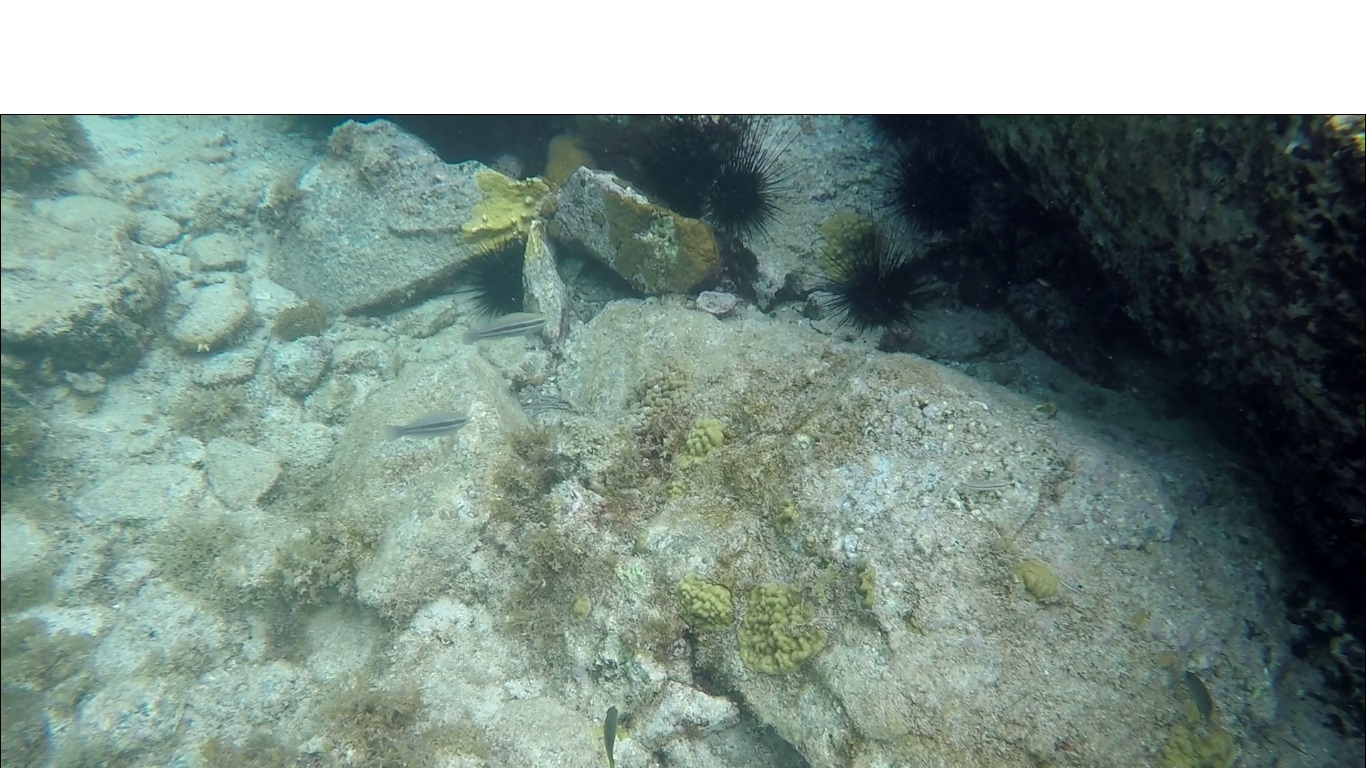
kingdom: Animalia
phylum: Chordata
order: Perciformes
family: Scaridae
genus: Scarus
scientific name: Scarus iseri
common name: Striped parrotfish
